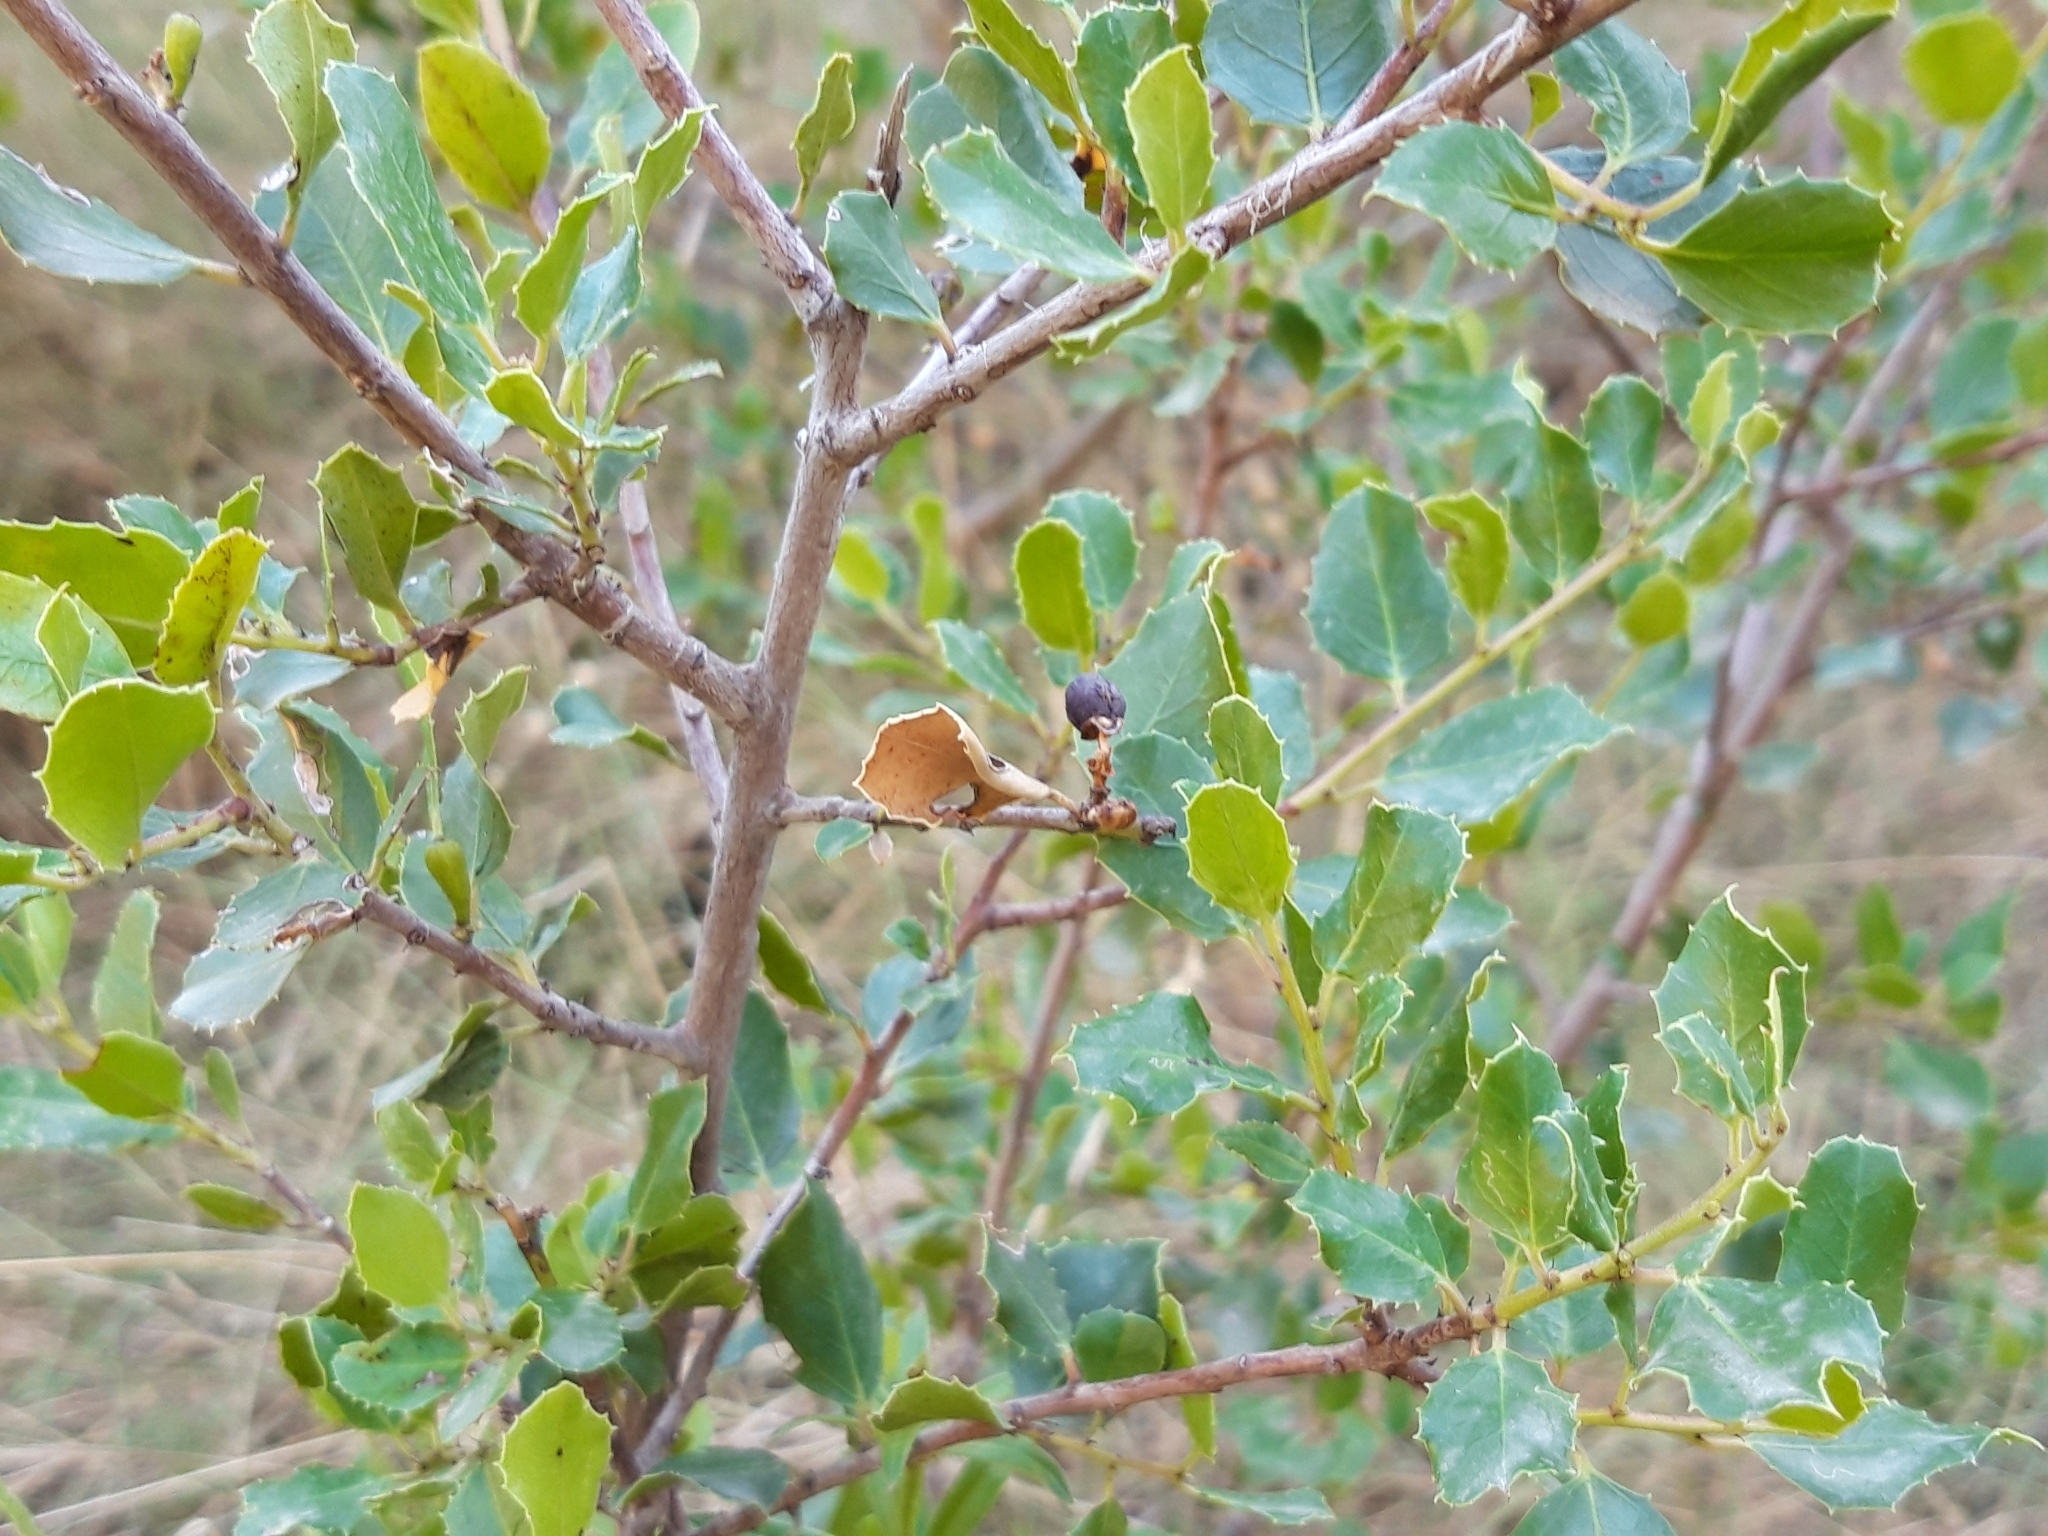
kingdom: Plantae
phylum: Tracheophyta
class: Magnoliopsida
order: Rosales
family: Rhamnaceae
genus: Rhamnus
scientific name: Rhamnus alaternus
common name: Mediterranean buckthorn
